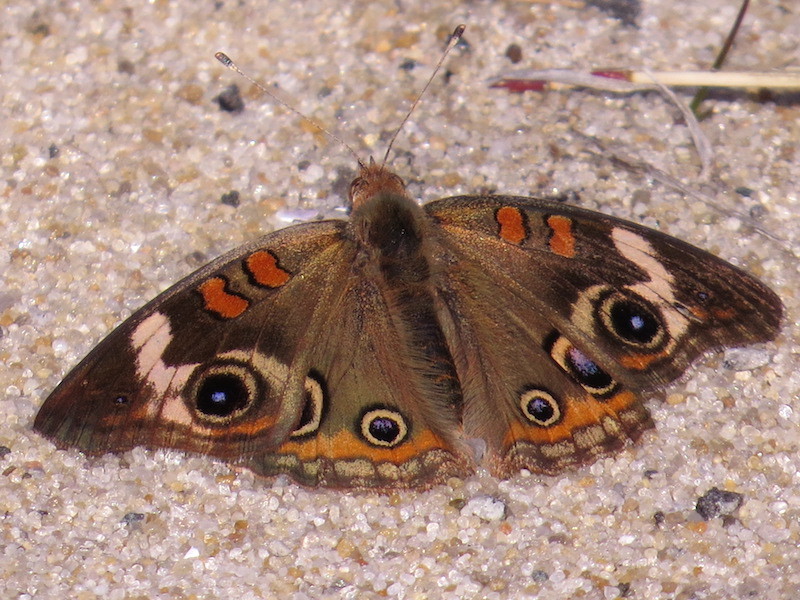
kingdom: Animalia
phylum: Arthropoda
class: Insecta
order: Lepidoptera
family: Nymphalidae
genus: Junonia
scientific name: Junonia coenia
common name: Common buckeye
